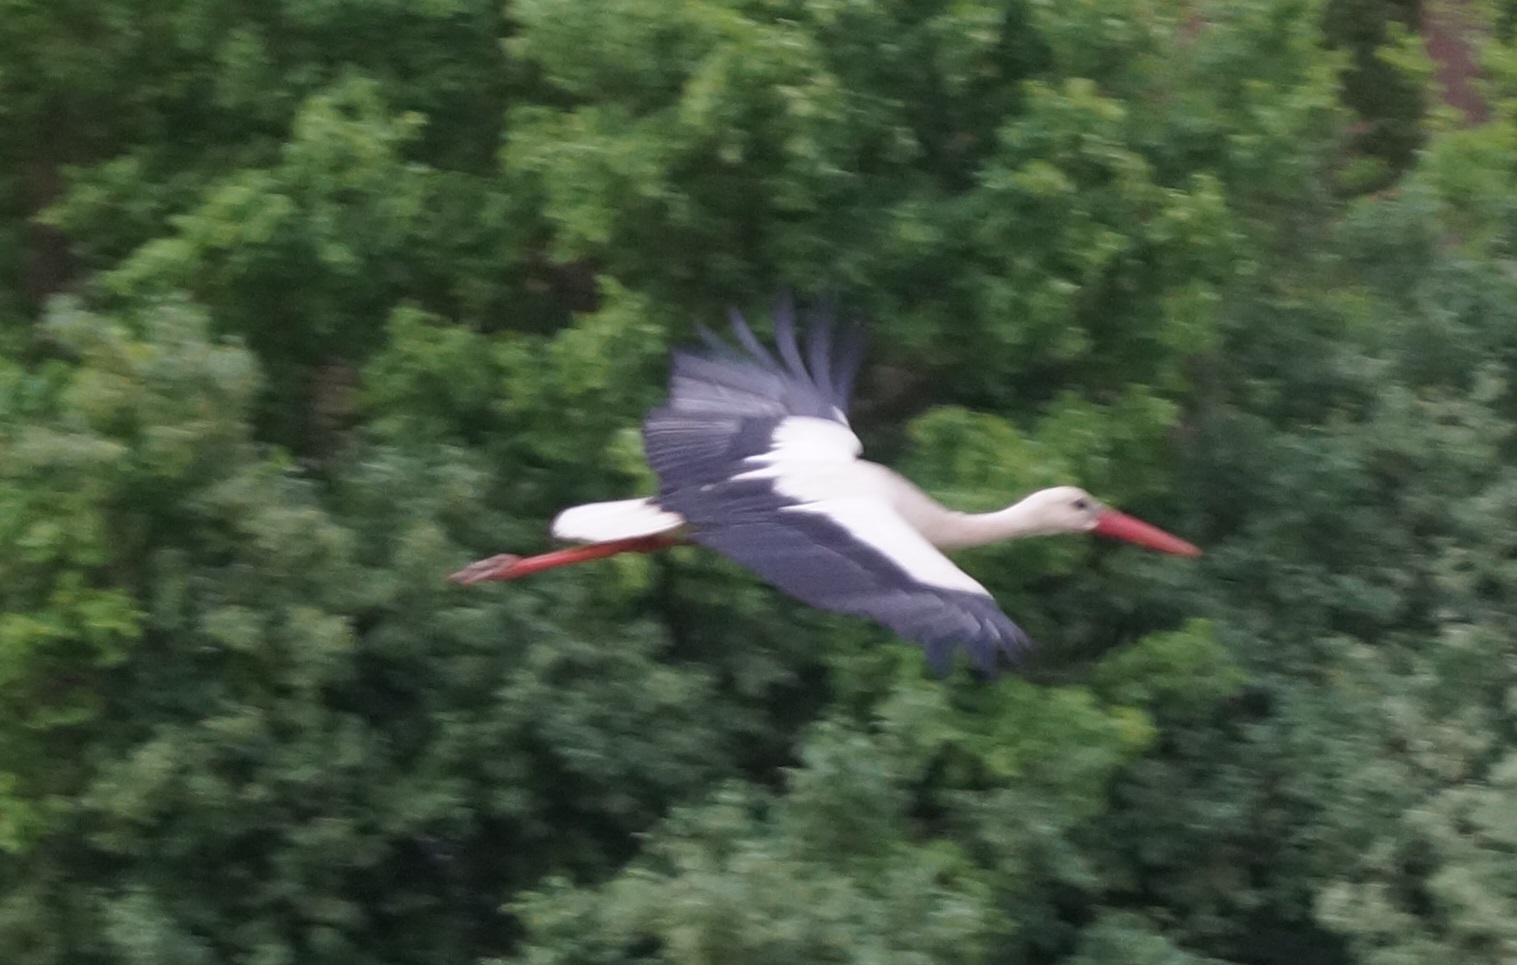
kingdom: Animalia
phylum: Chordata
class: Aves
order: Ciconiiformes
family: Ciconiidae
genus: Ciconia
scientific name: Ciconia ciconia
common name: White stork
